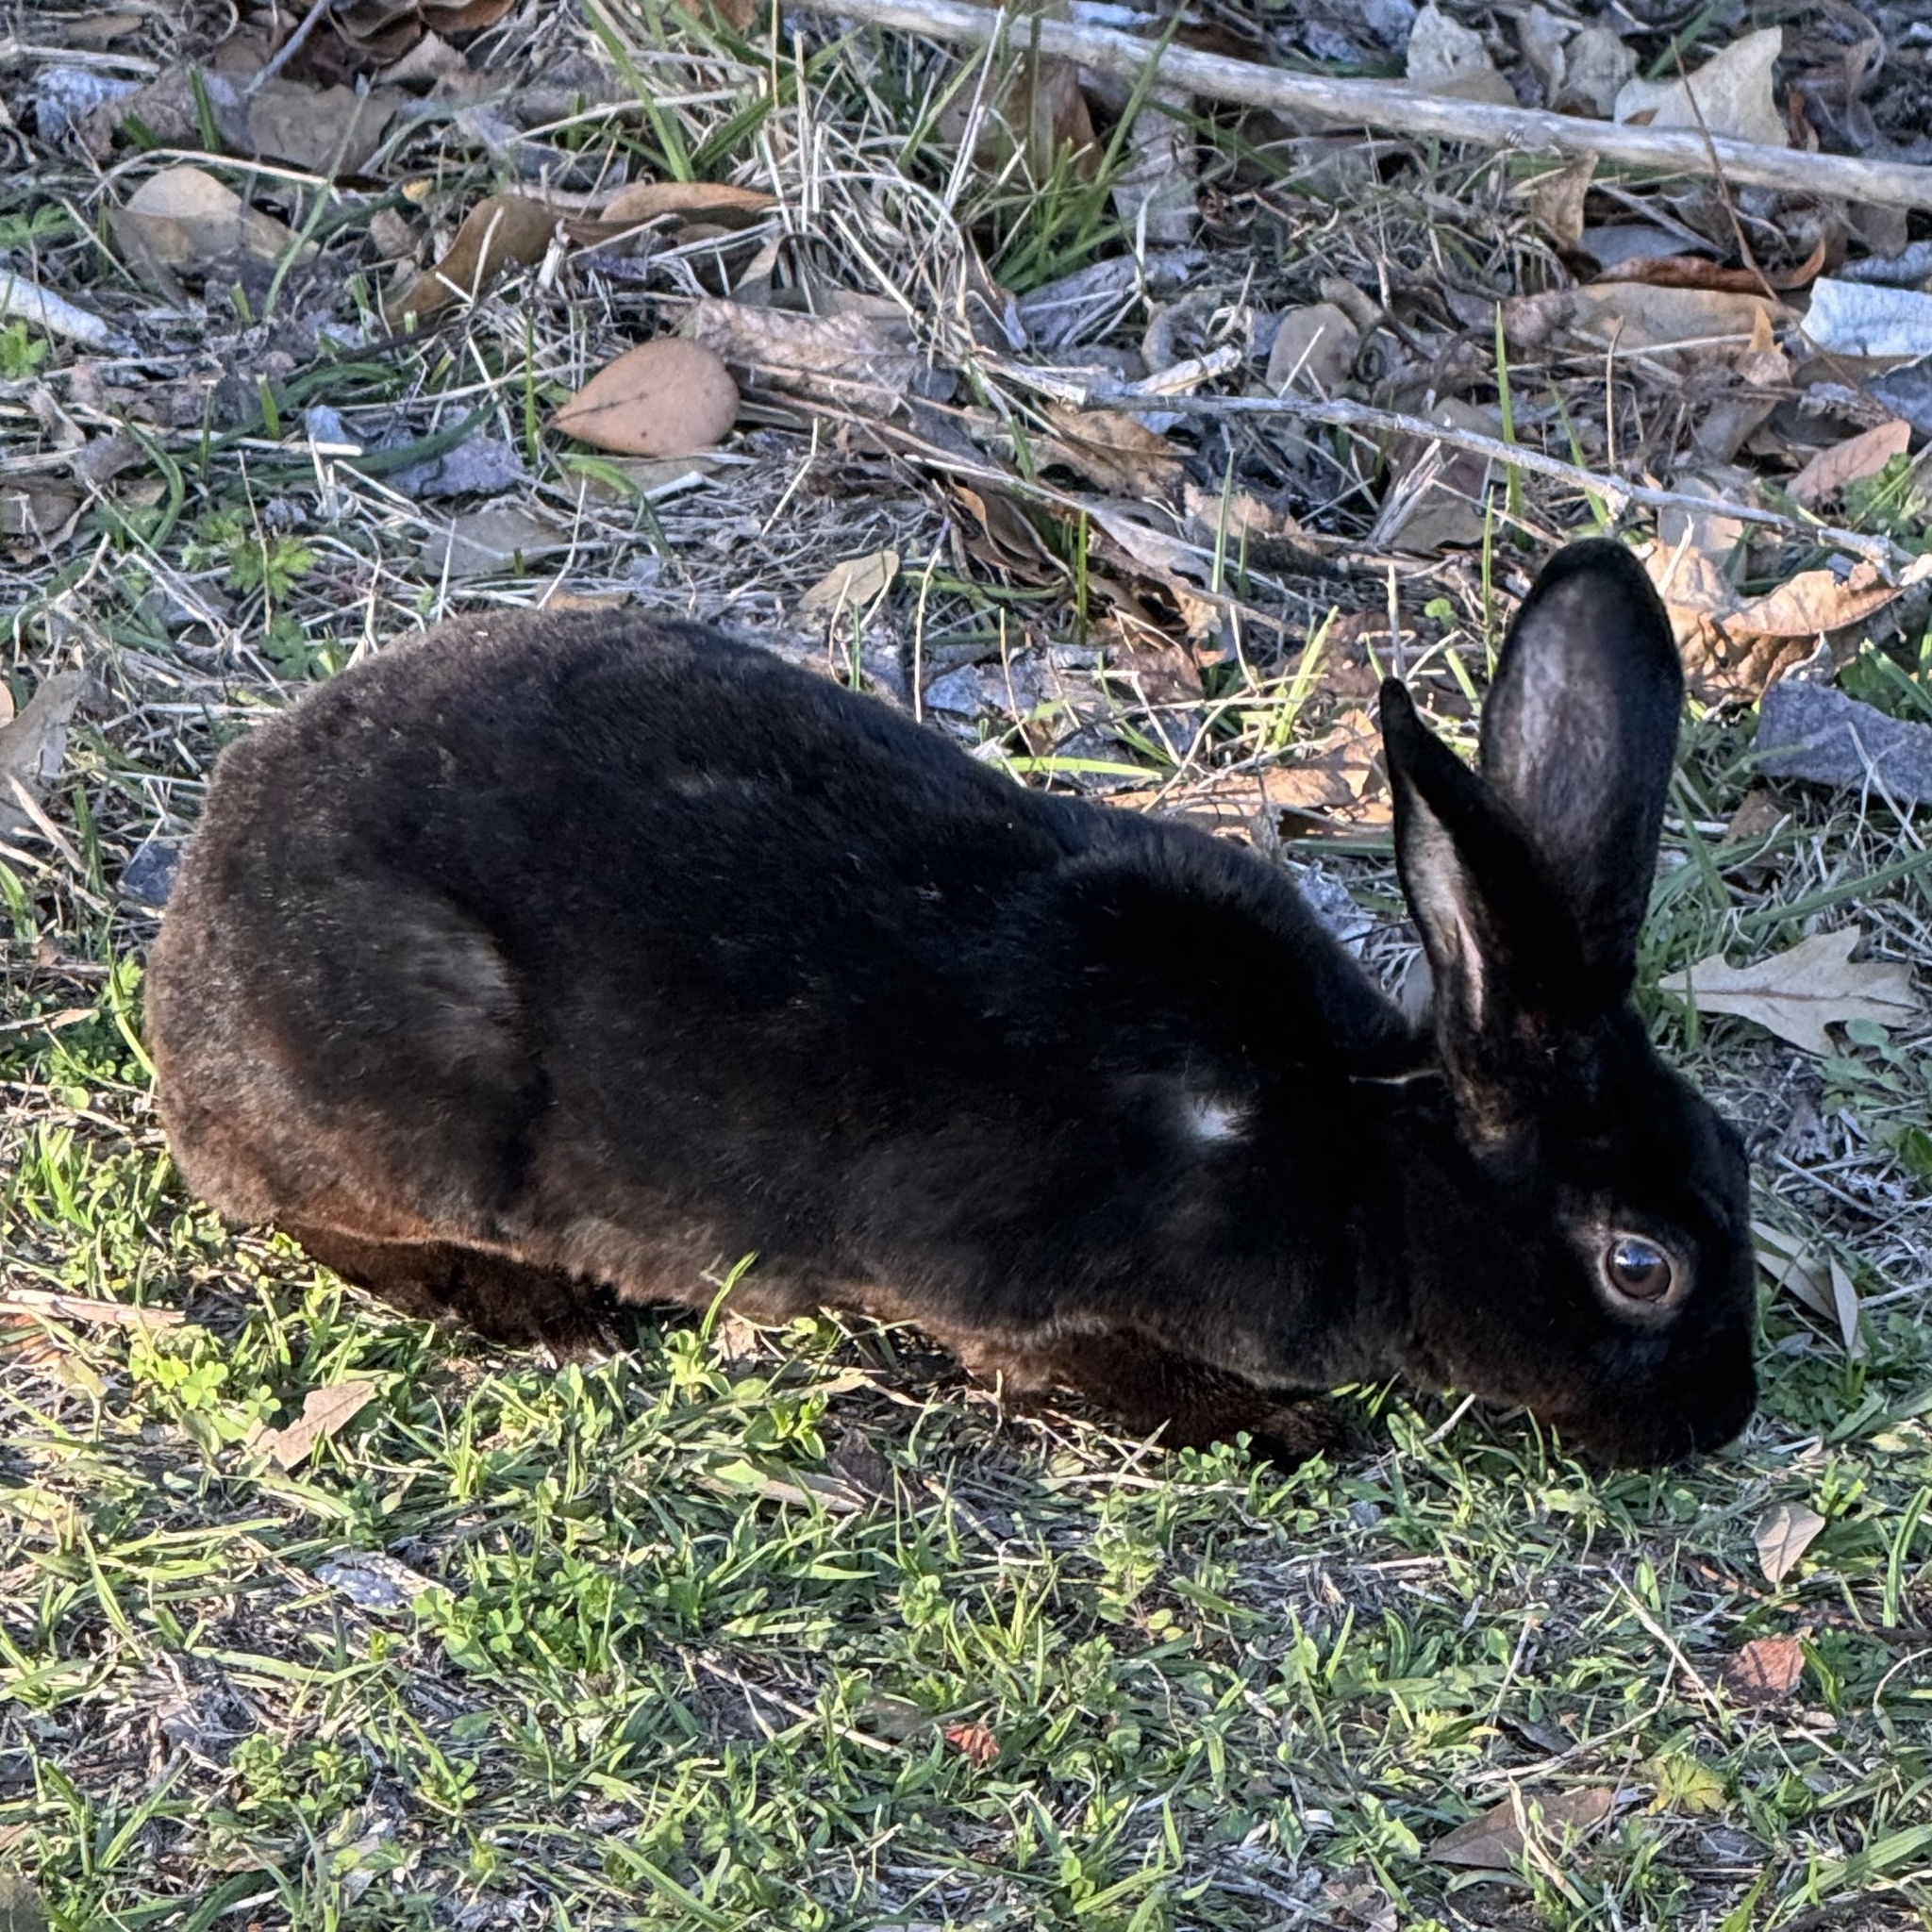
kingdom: Animalia
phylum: Chordata
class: Mammalia
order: Lagomorpha
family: Leporidae
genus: Oryctolagus
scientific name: Oryctolagus cuniculus
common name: European rabbit
